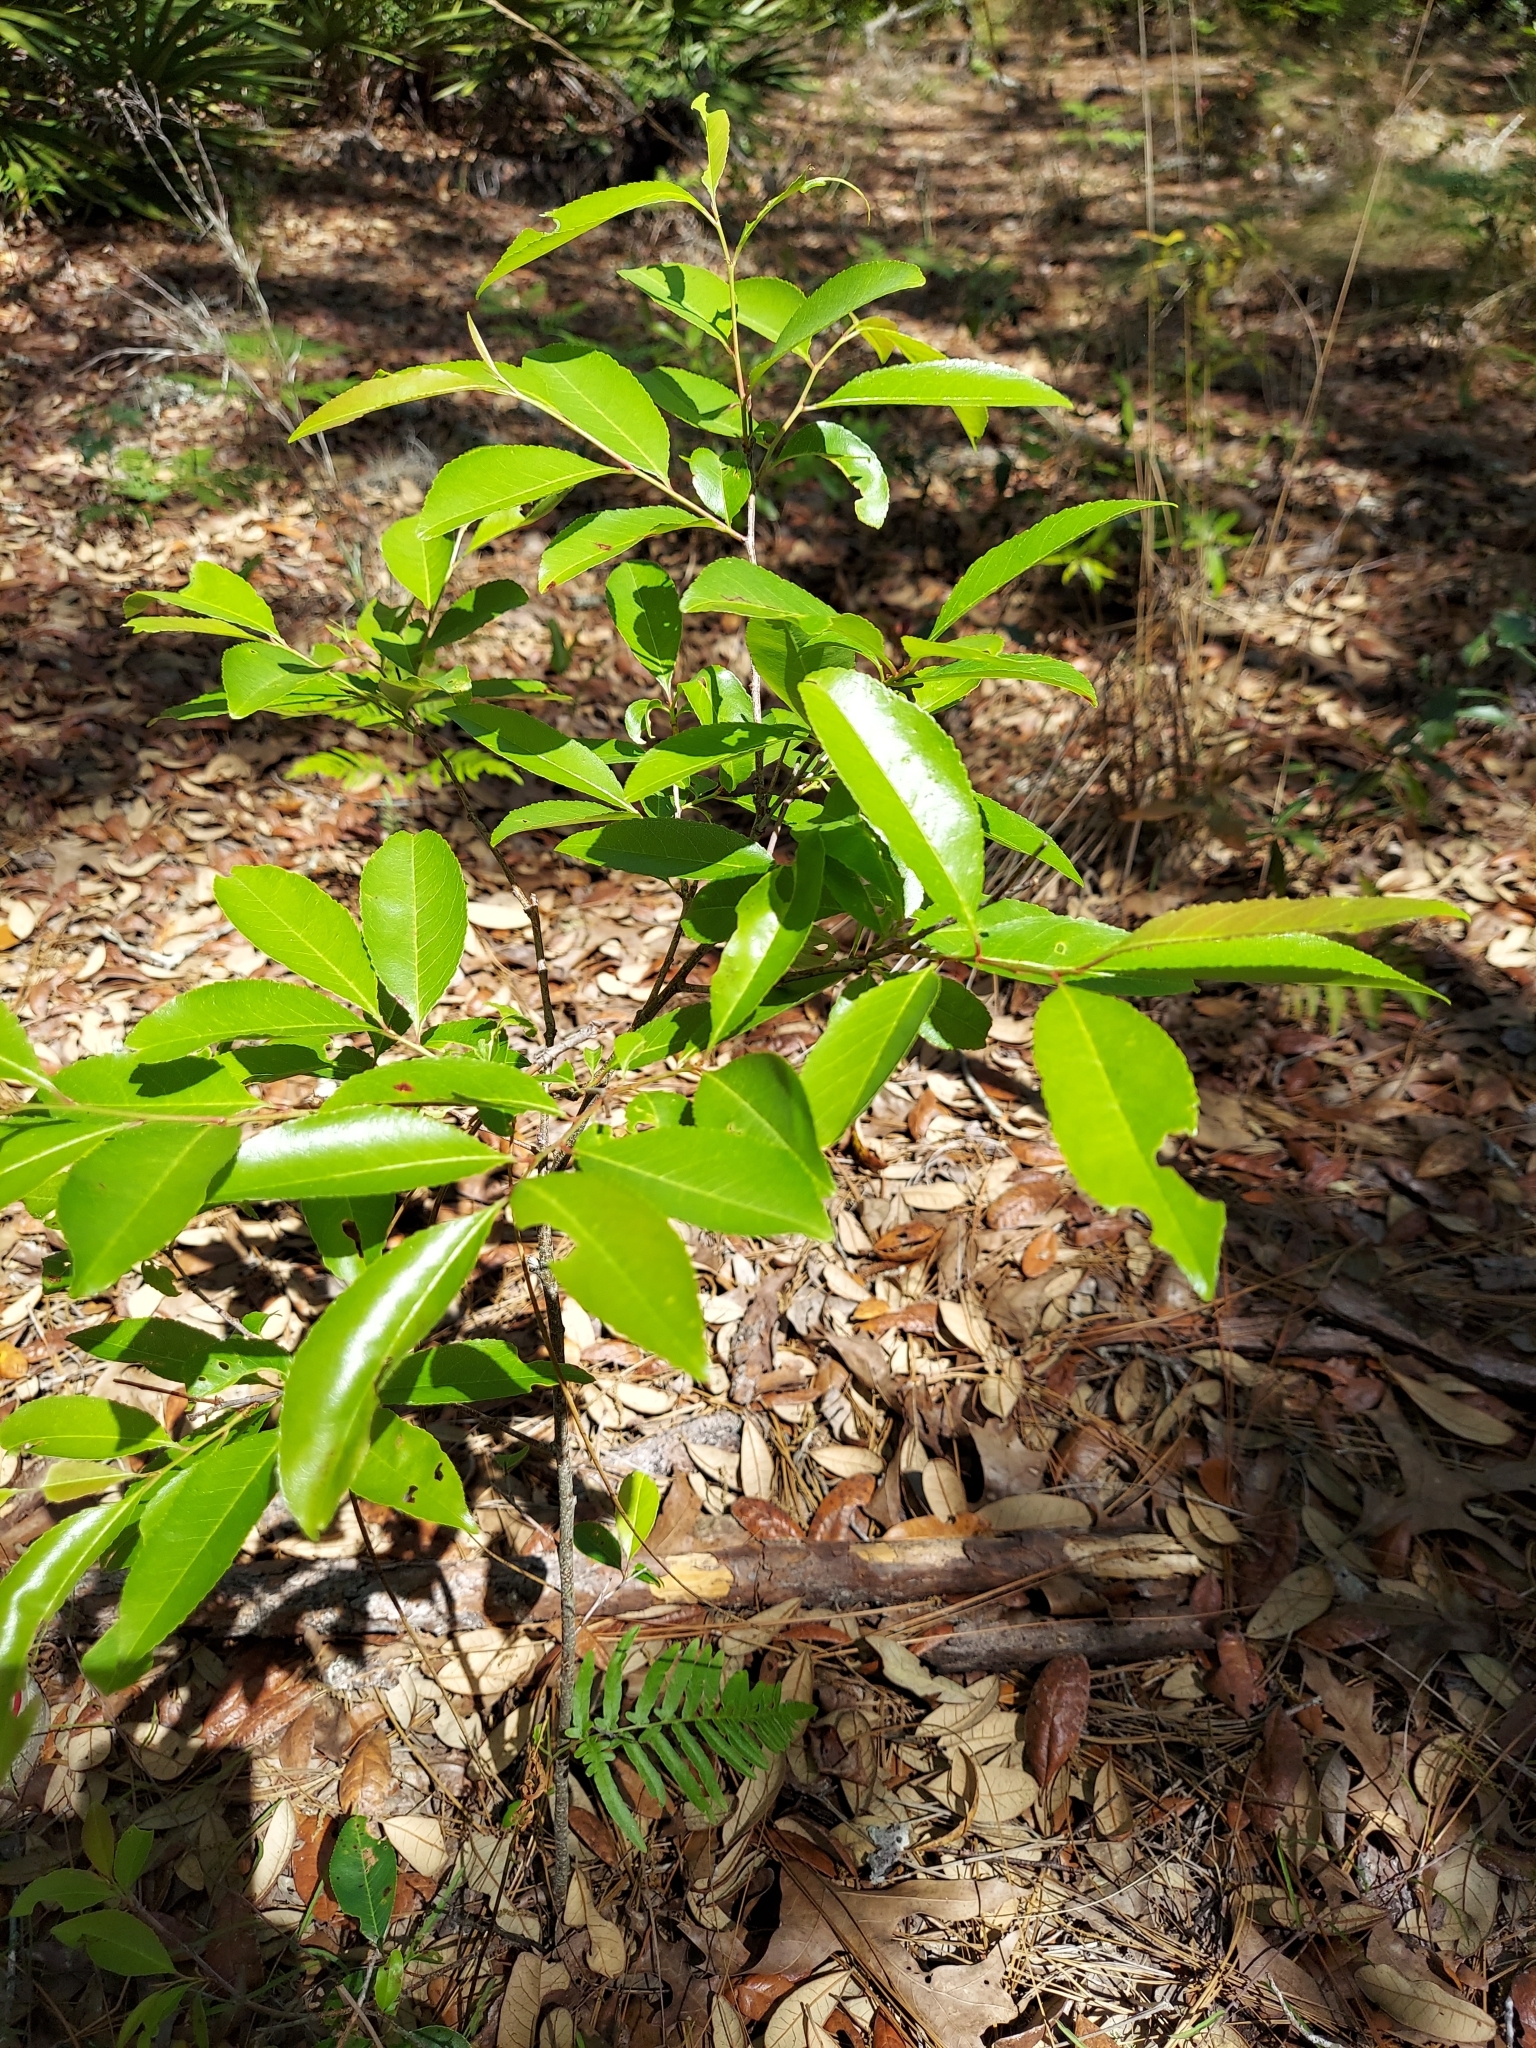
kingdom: Plantae
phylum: Tracheophyta
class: Magnoliopsida
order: Rosales
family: Rosaceae
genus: Prunus
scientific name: Prunus serotina
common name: Black cherry
